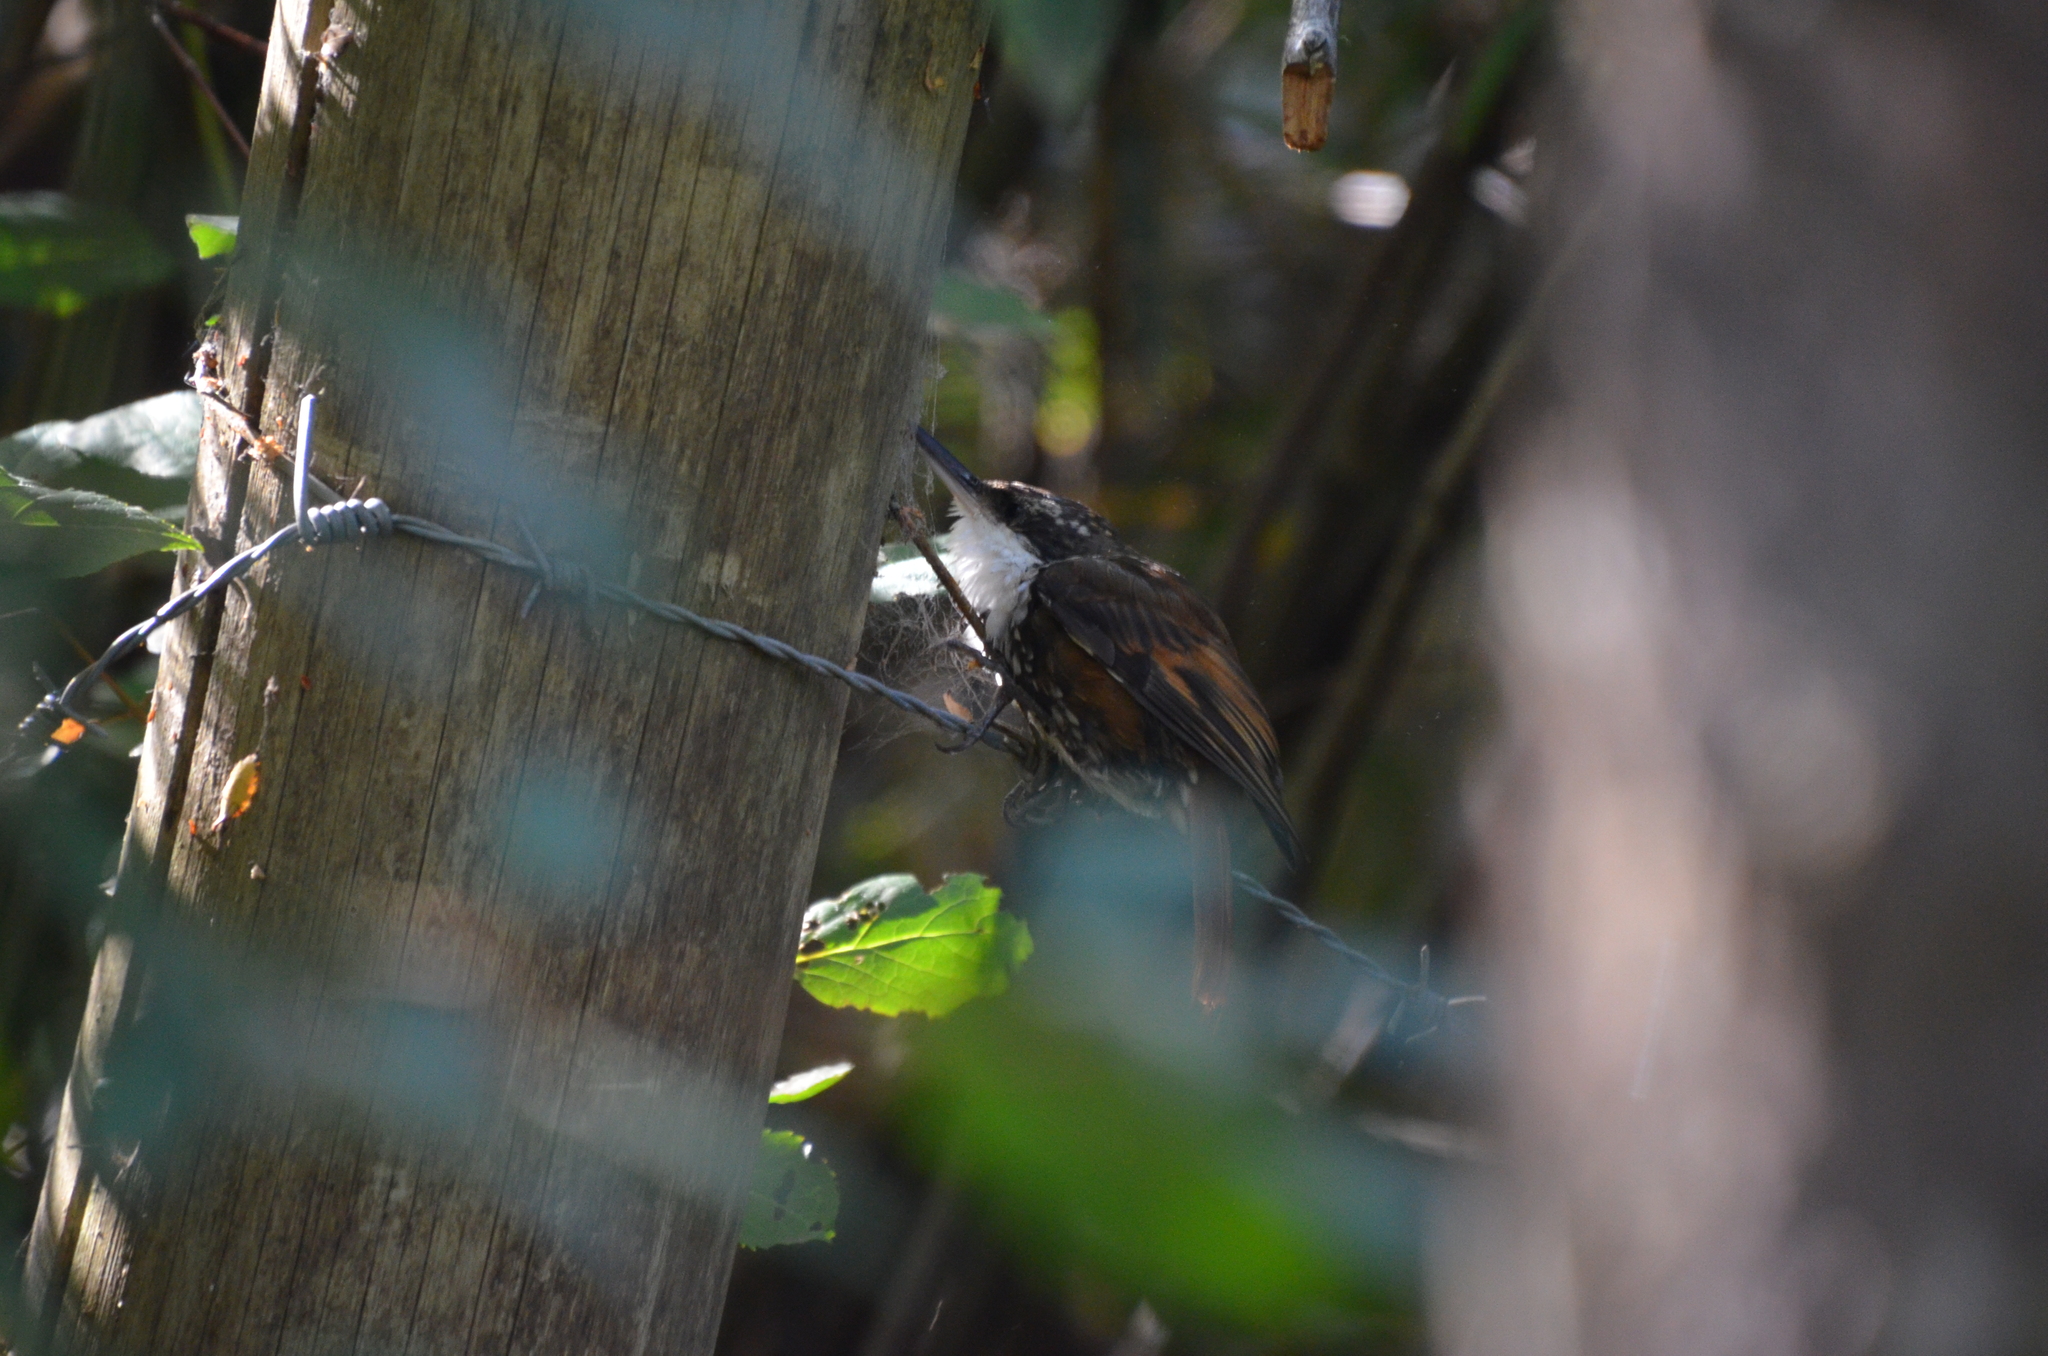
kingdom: Animalia
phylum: Chordata
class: Aves
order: Passeriformes
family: Furnariidae
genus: Pygarrhichas
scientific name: Pygarrhichas albogularis
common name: White-throated treerunner
